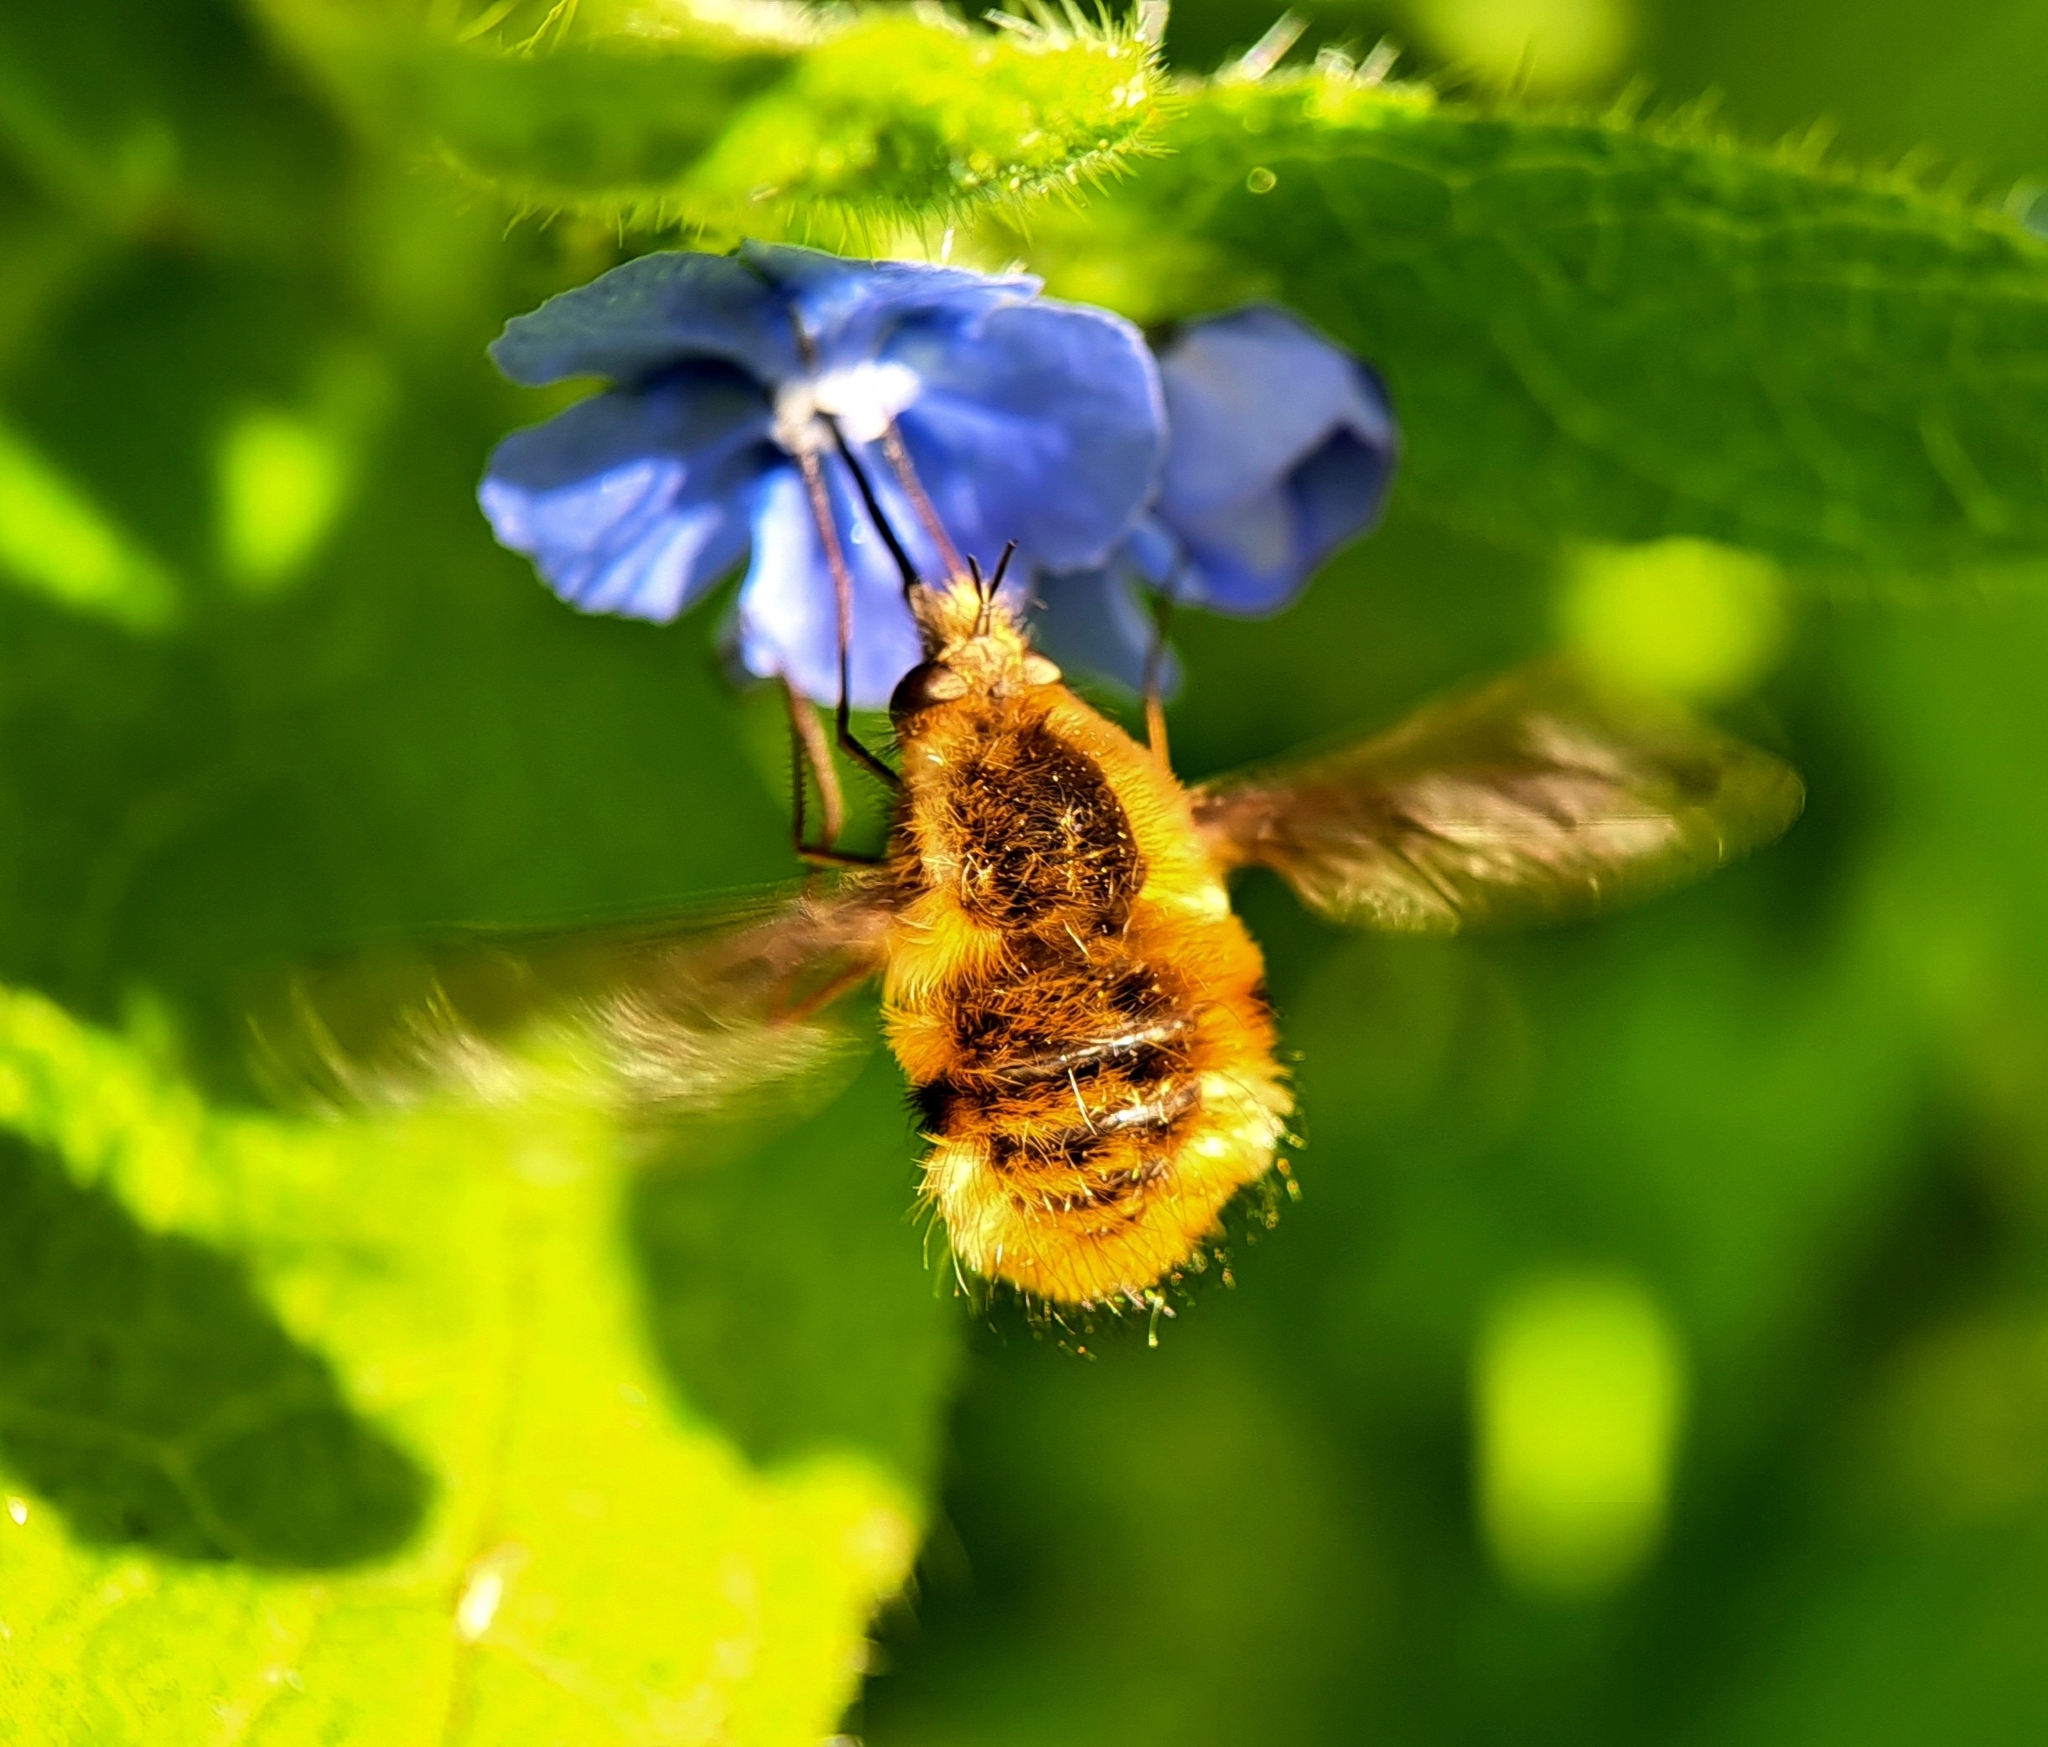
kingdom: Animalia
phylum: Arthropoda
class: Insecta
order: Diptera
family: Bombyliidae
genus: Bombylius
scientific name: Bombylius major
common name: Bee fly
